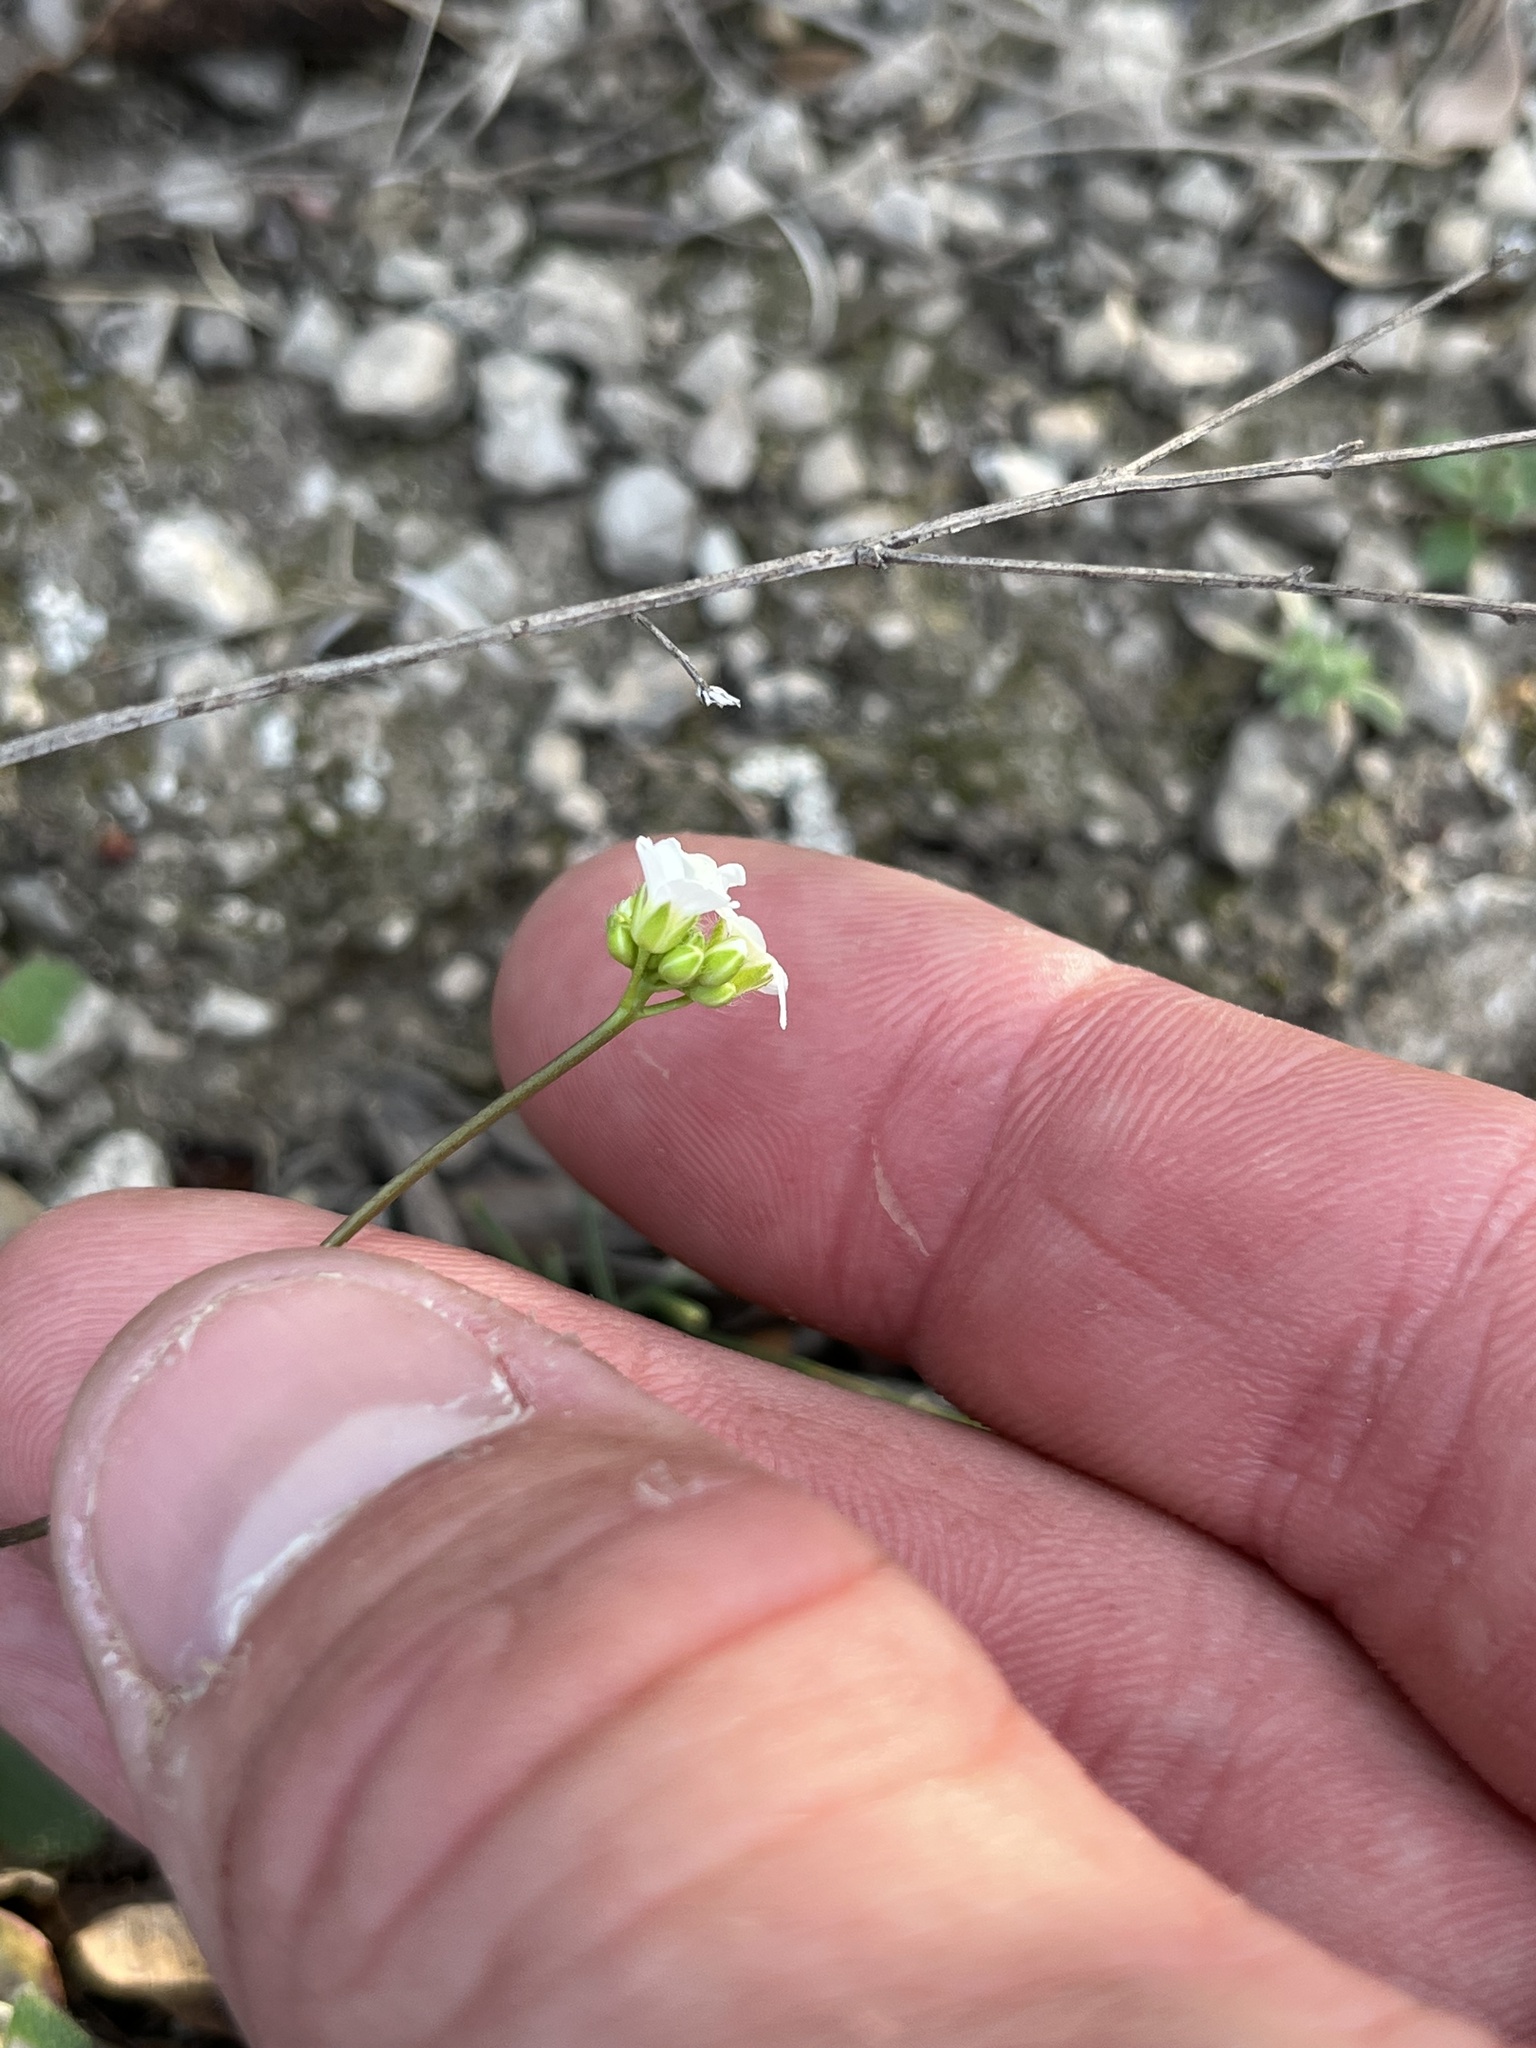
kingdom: Plantae
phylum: Tracheophyta
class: Magnoliopsida
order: Brassicales
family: Brassicaceae
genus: Tomostima
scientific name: Tomostima reptans
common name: Carolina draba
